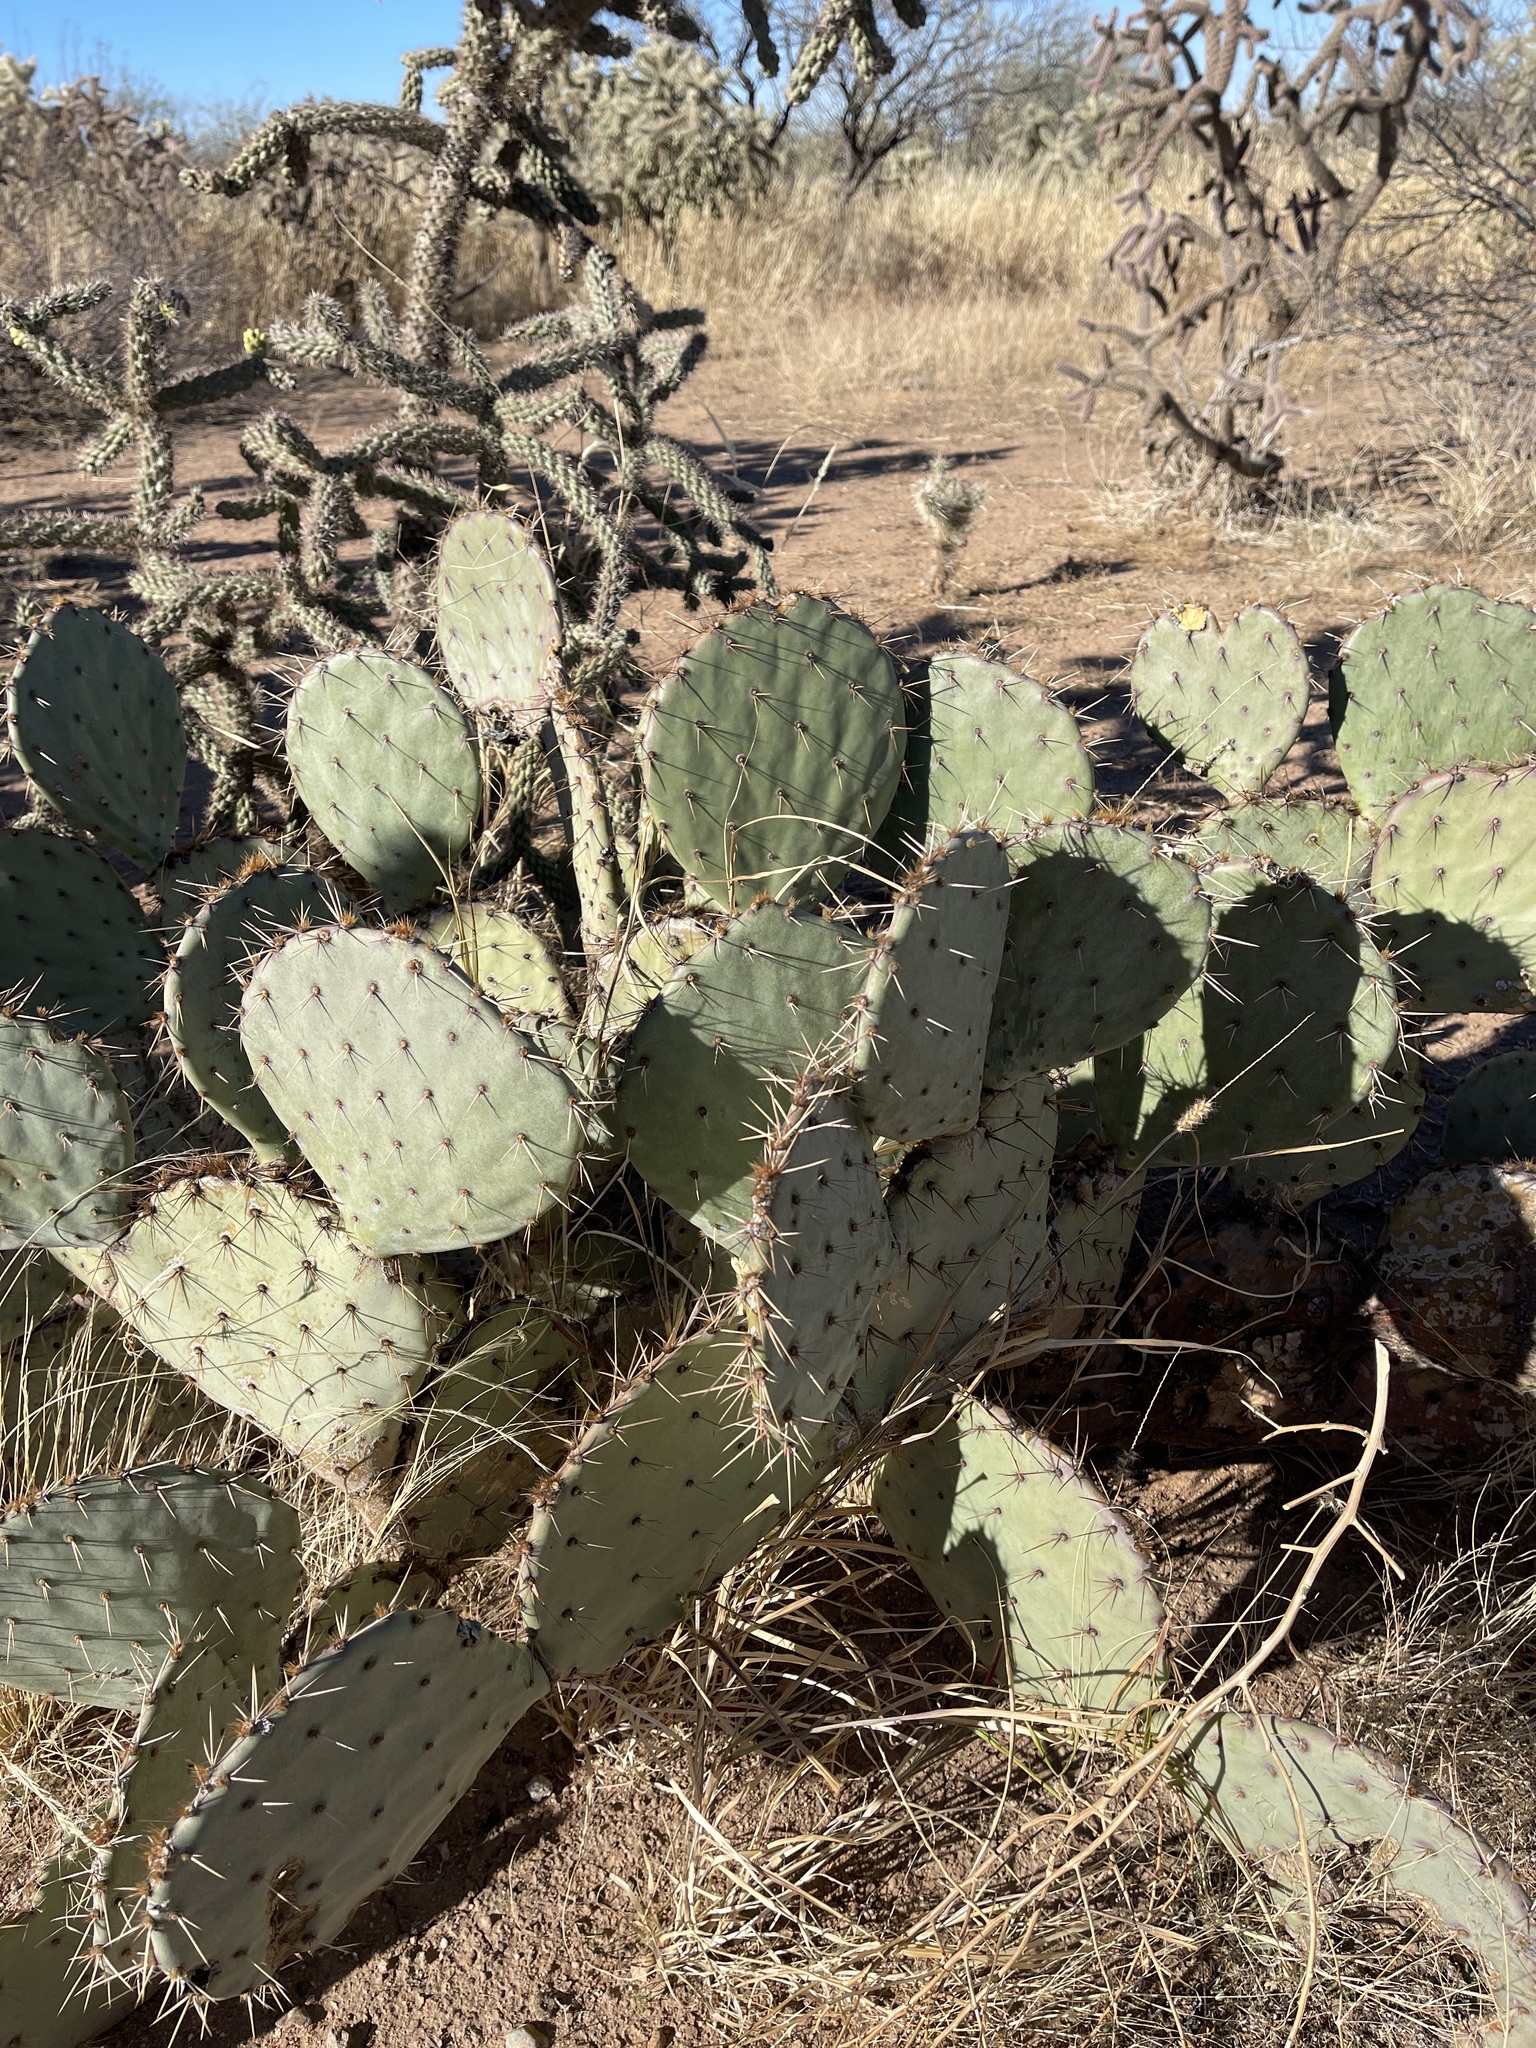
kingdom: Plantae
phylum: Tracheophyta
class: Magnoliopsida
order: Caryophyllales
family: Cactaceae
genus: Opuntia
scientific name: Opuntia engelmannii
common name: Cactus-apple
